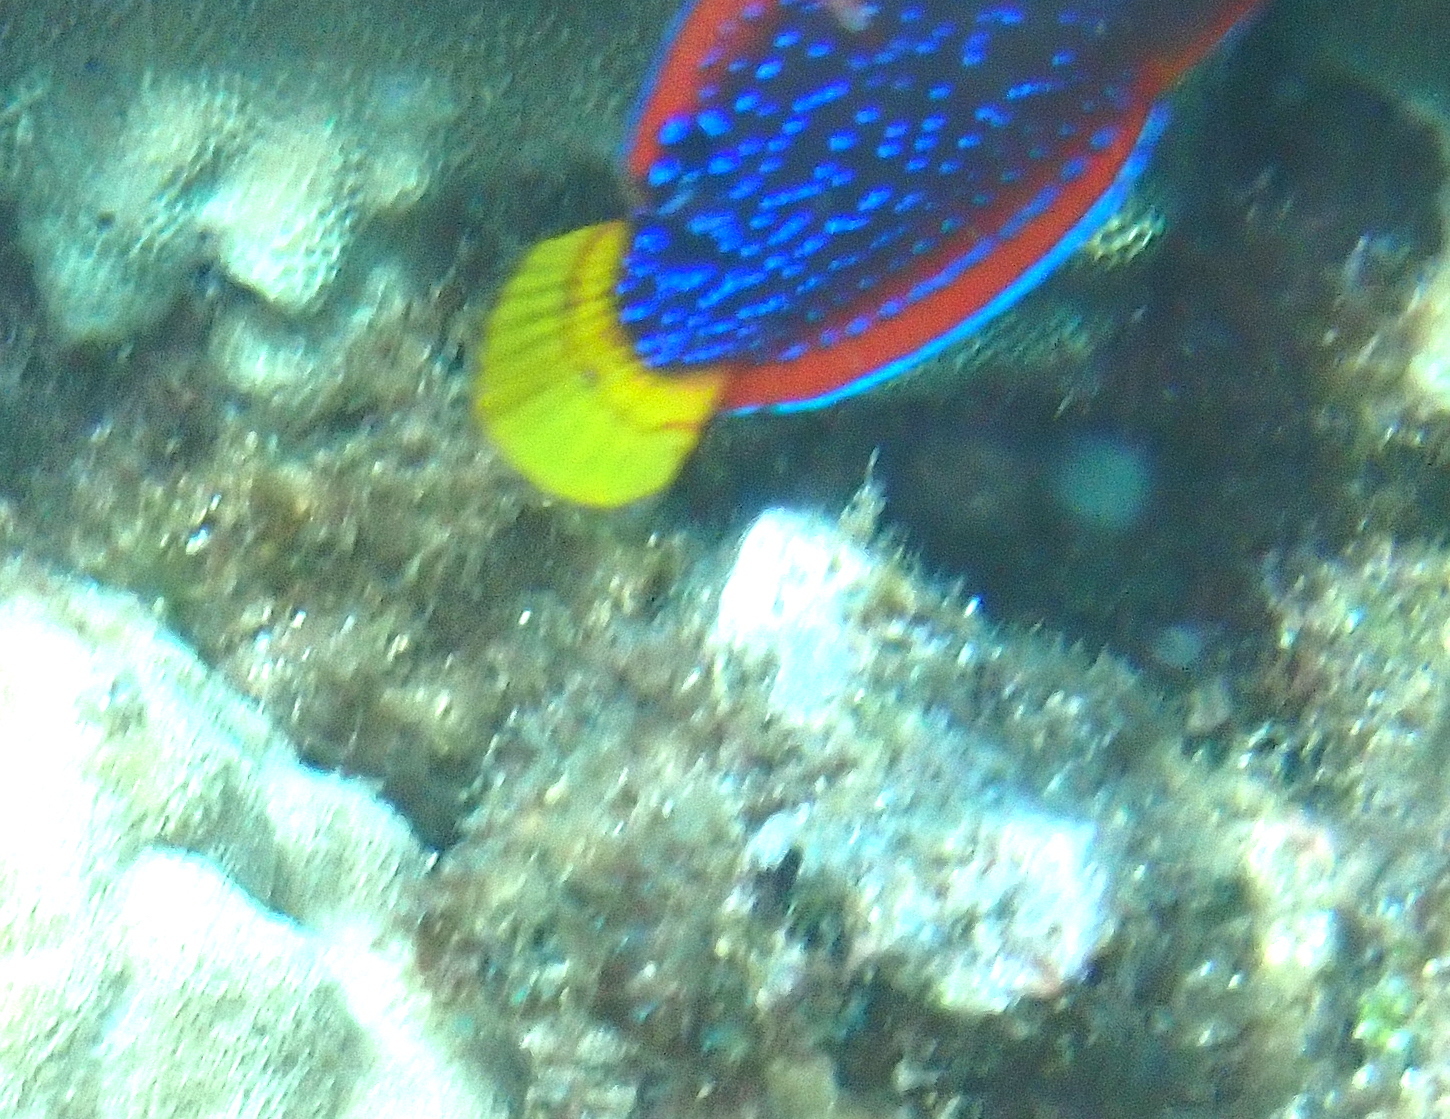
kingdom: Animalia
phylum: Chordata
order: Perciformes
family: Labridae
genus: Coris
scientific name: Coris gaimard
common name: Yellowtail coris
